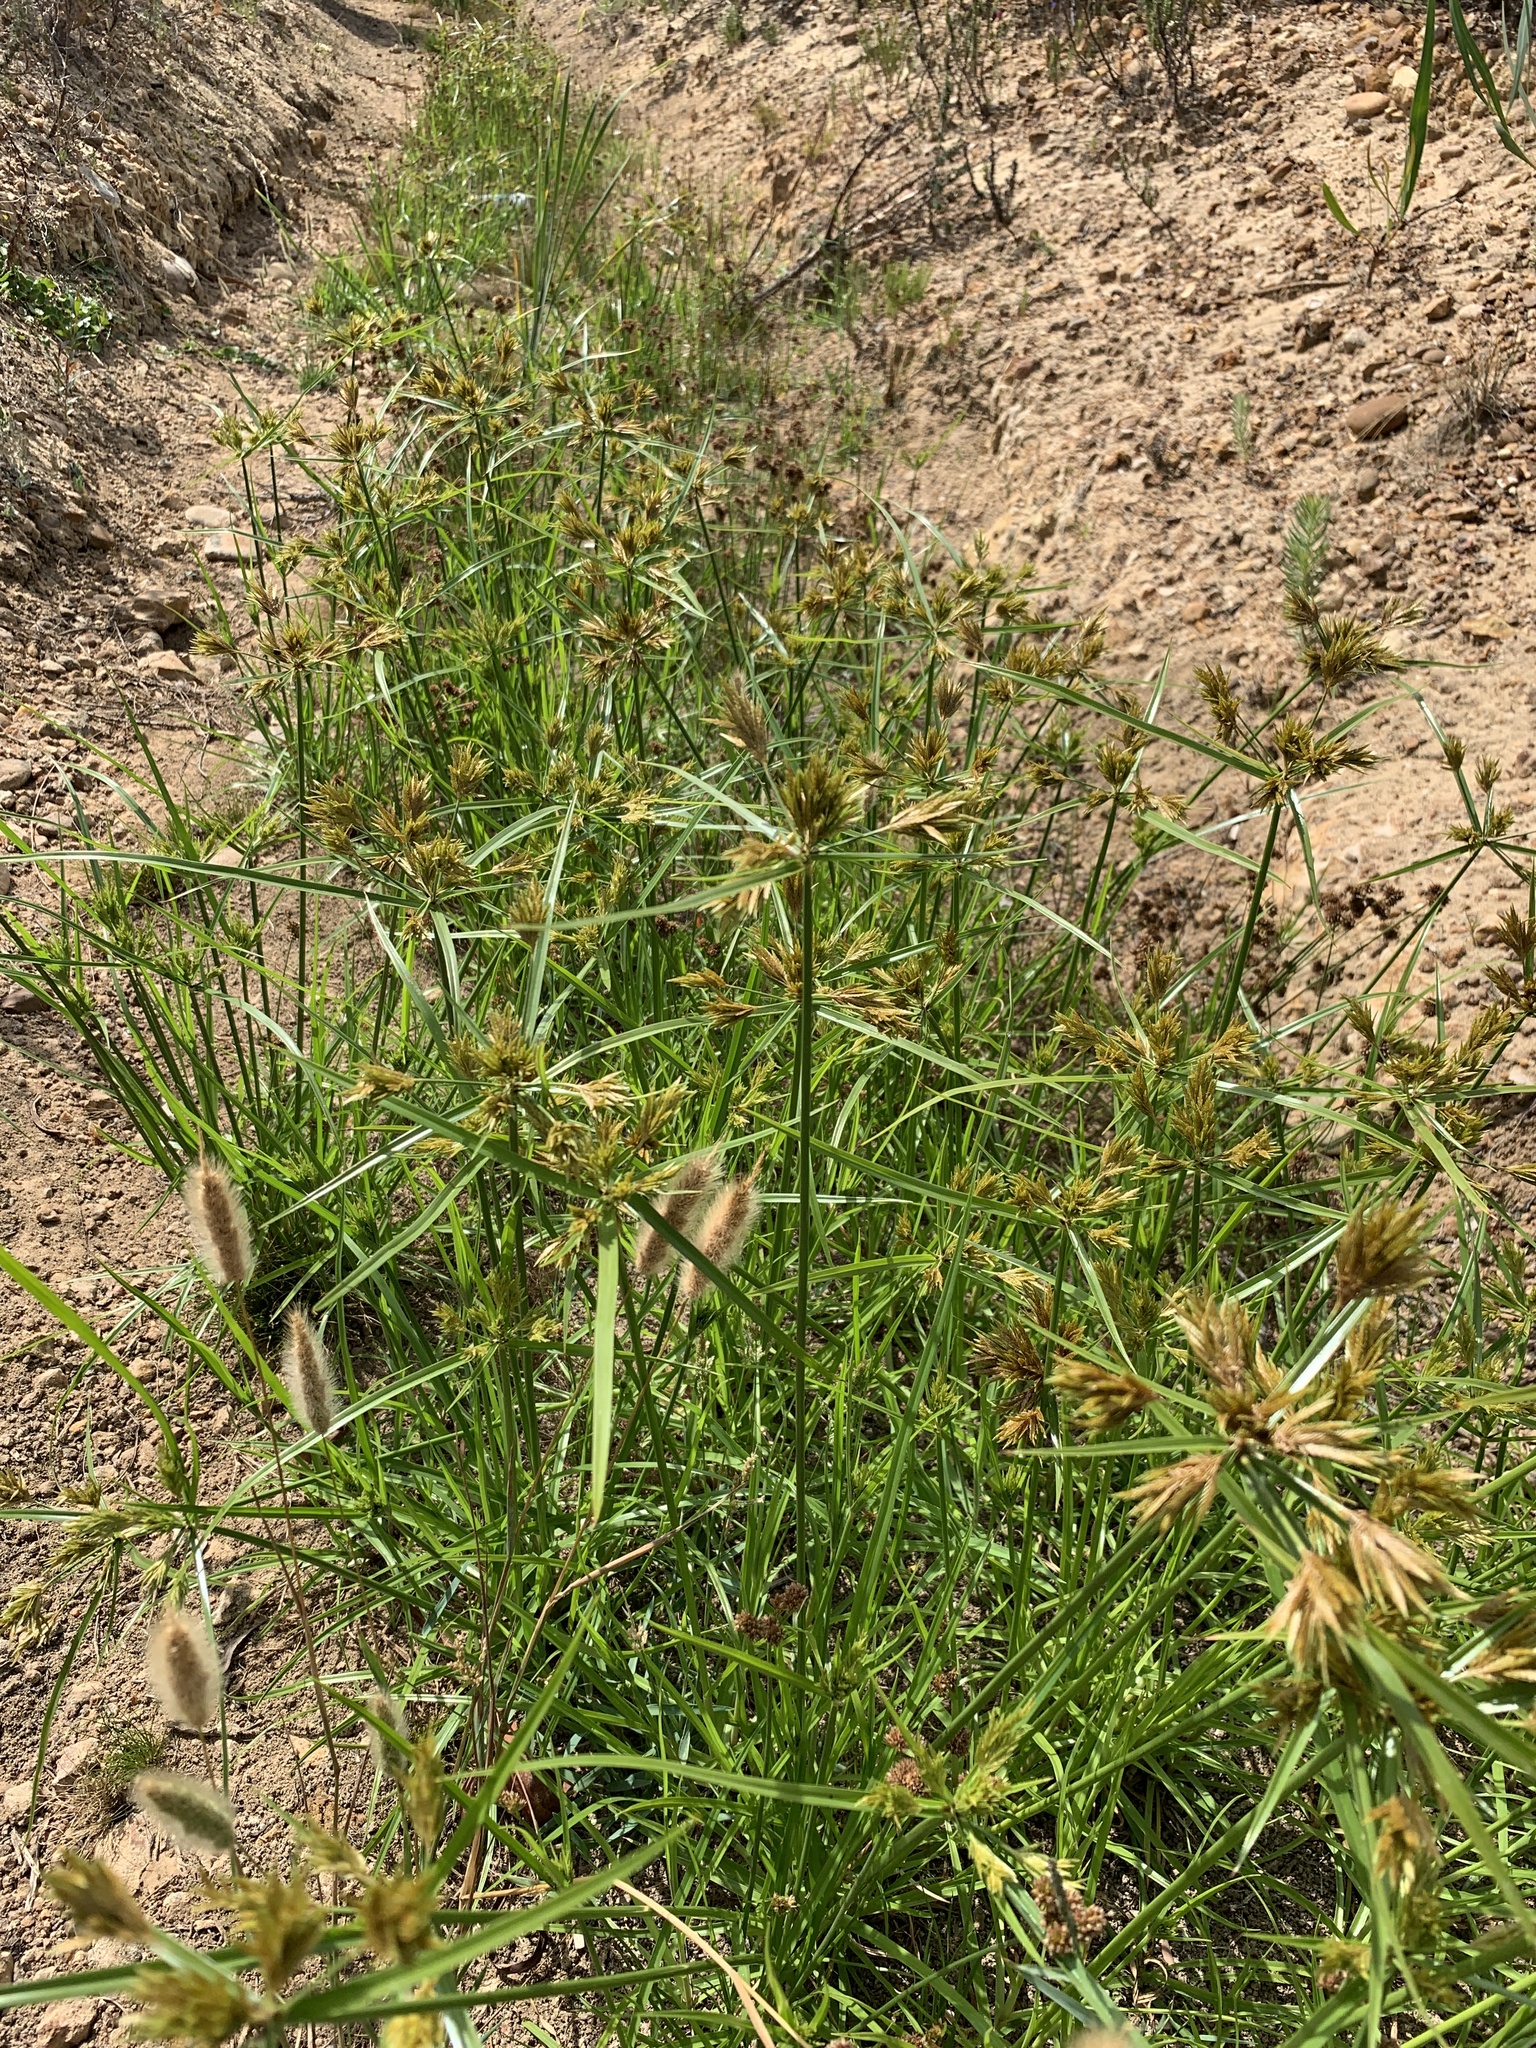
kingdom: Plantae
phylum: Tracheophyta
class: Liliopsida
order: Poales
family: Cyperaceae
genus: Cyperus
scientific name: Cyperus polystachyos
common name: Bunchy flat sedge
